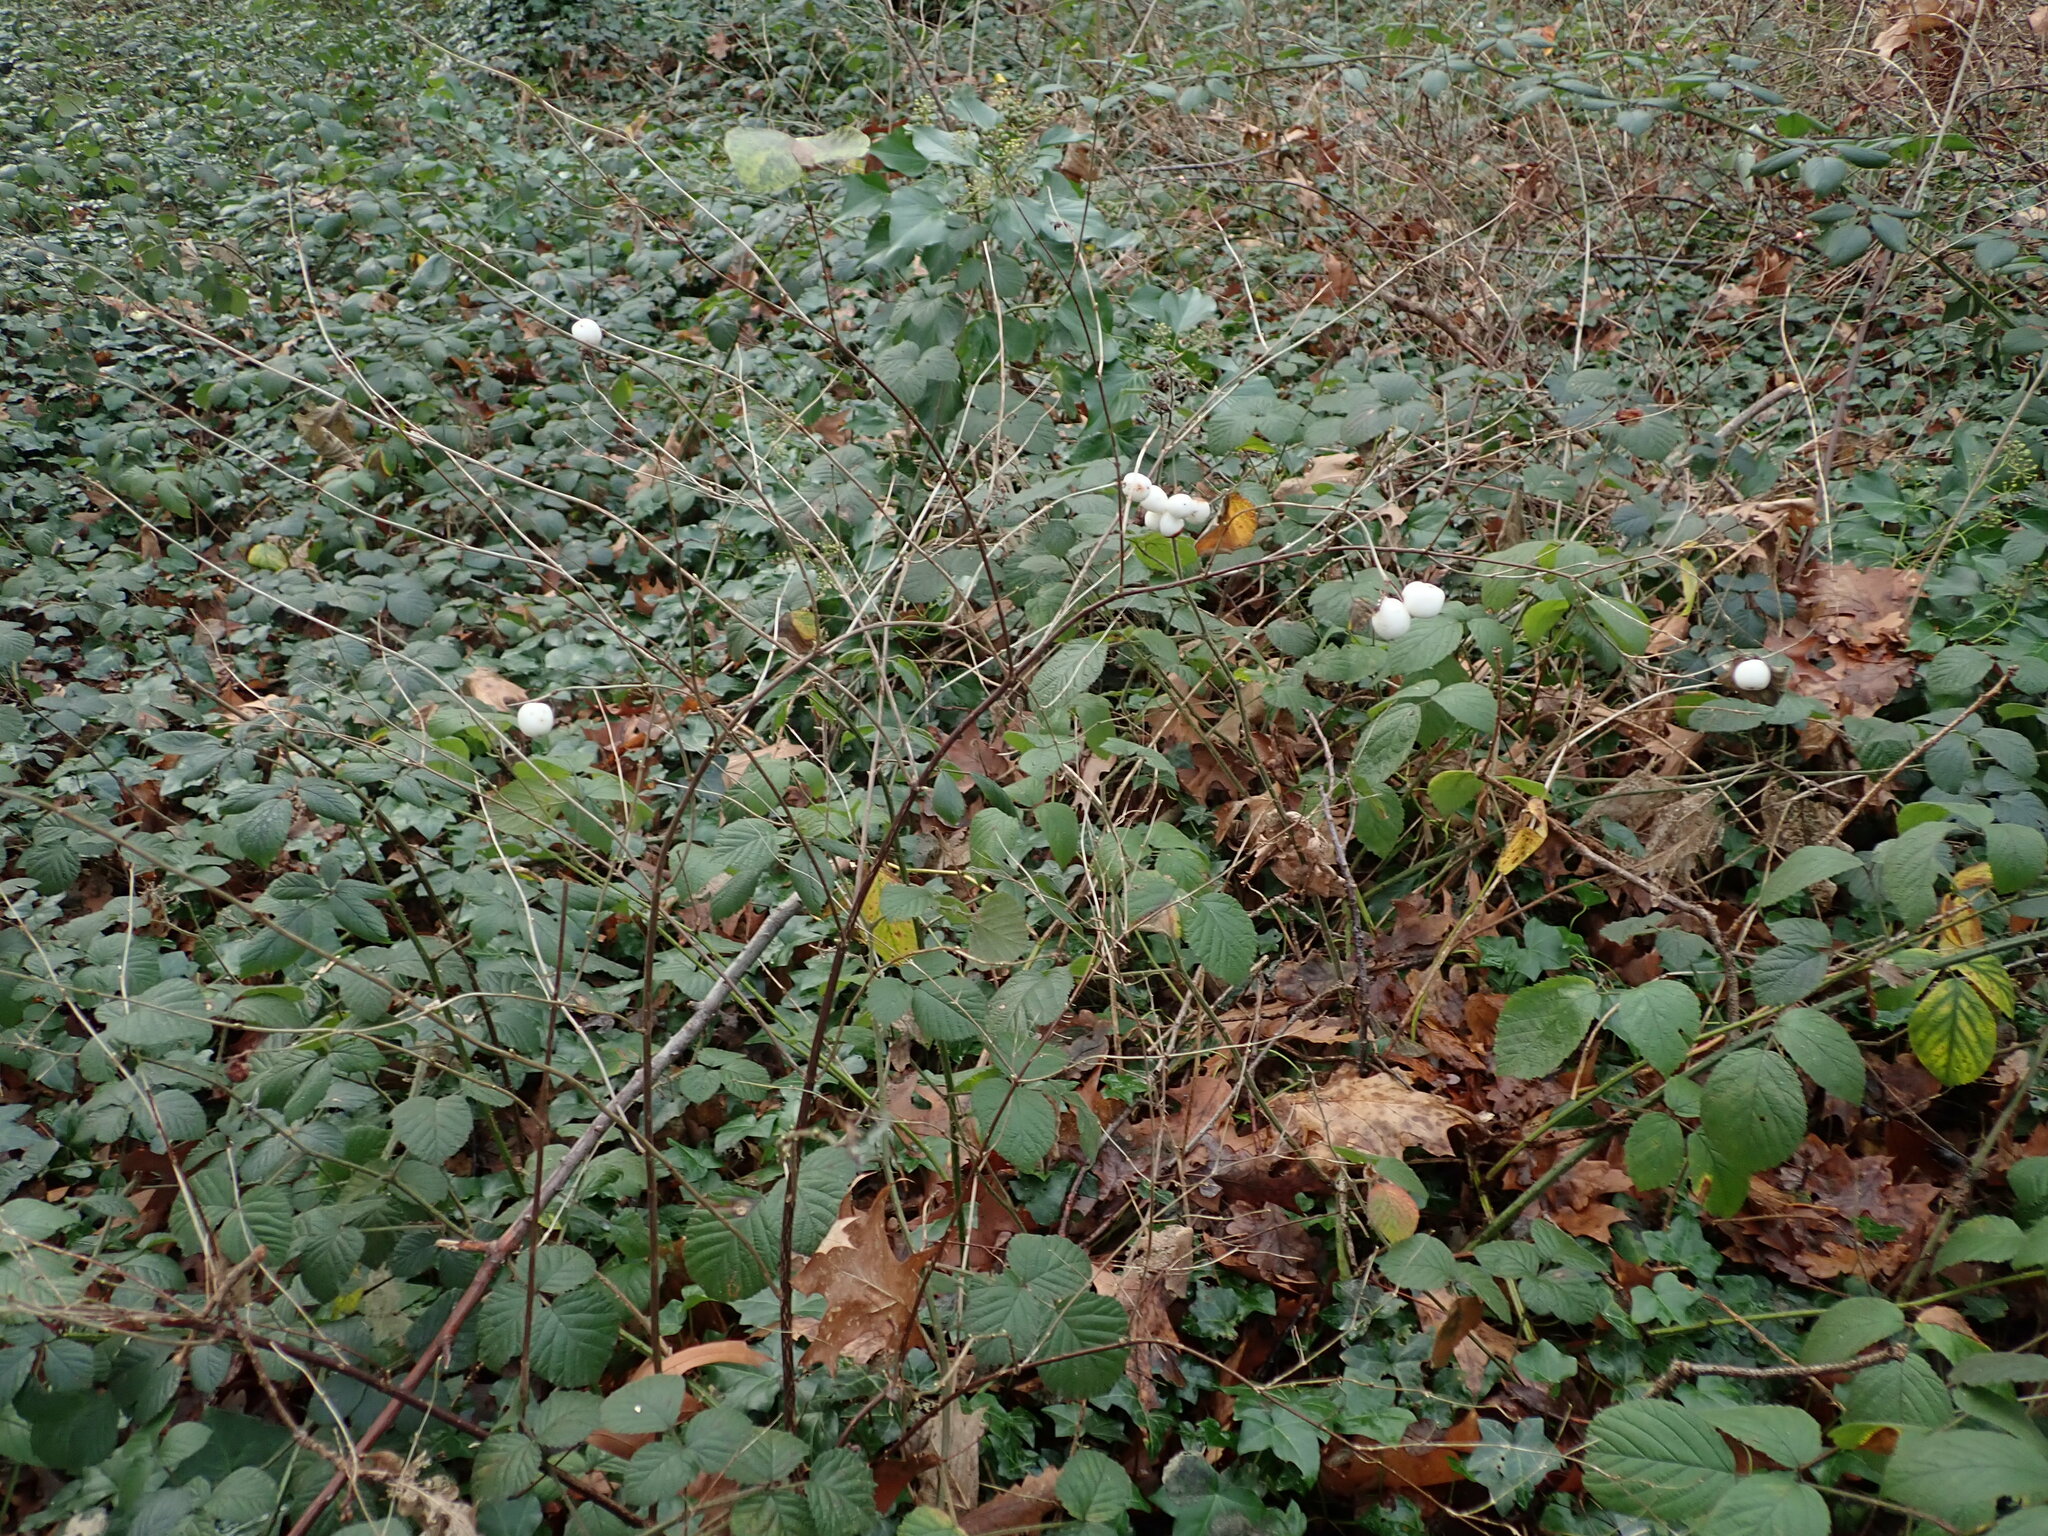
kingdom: Plantae
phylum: Tracheophyta
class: Magnoliopsida
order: Dipsacales
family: Caprifoliaceae
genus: Symphoricarpos
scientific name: Symphoricarpos albus
